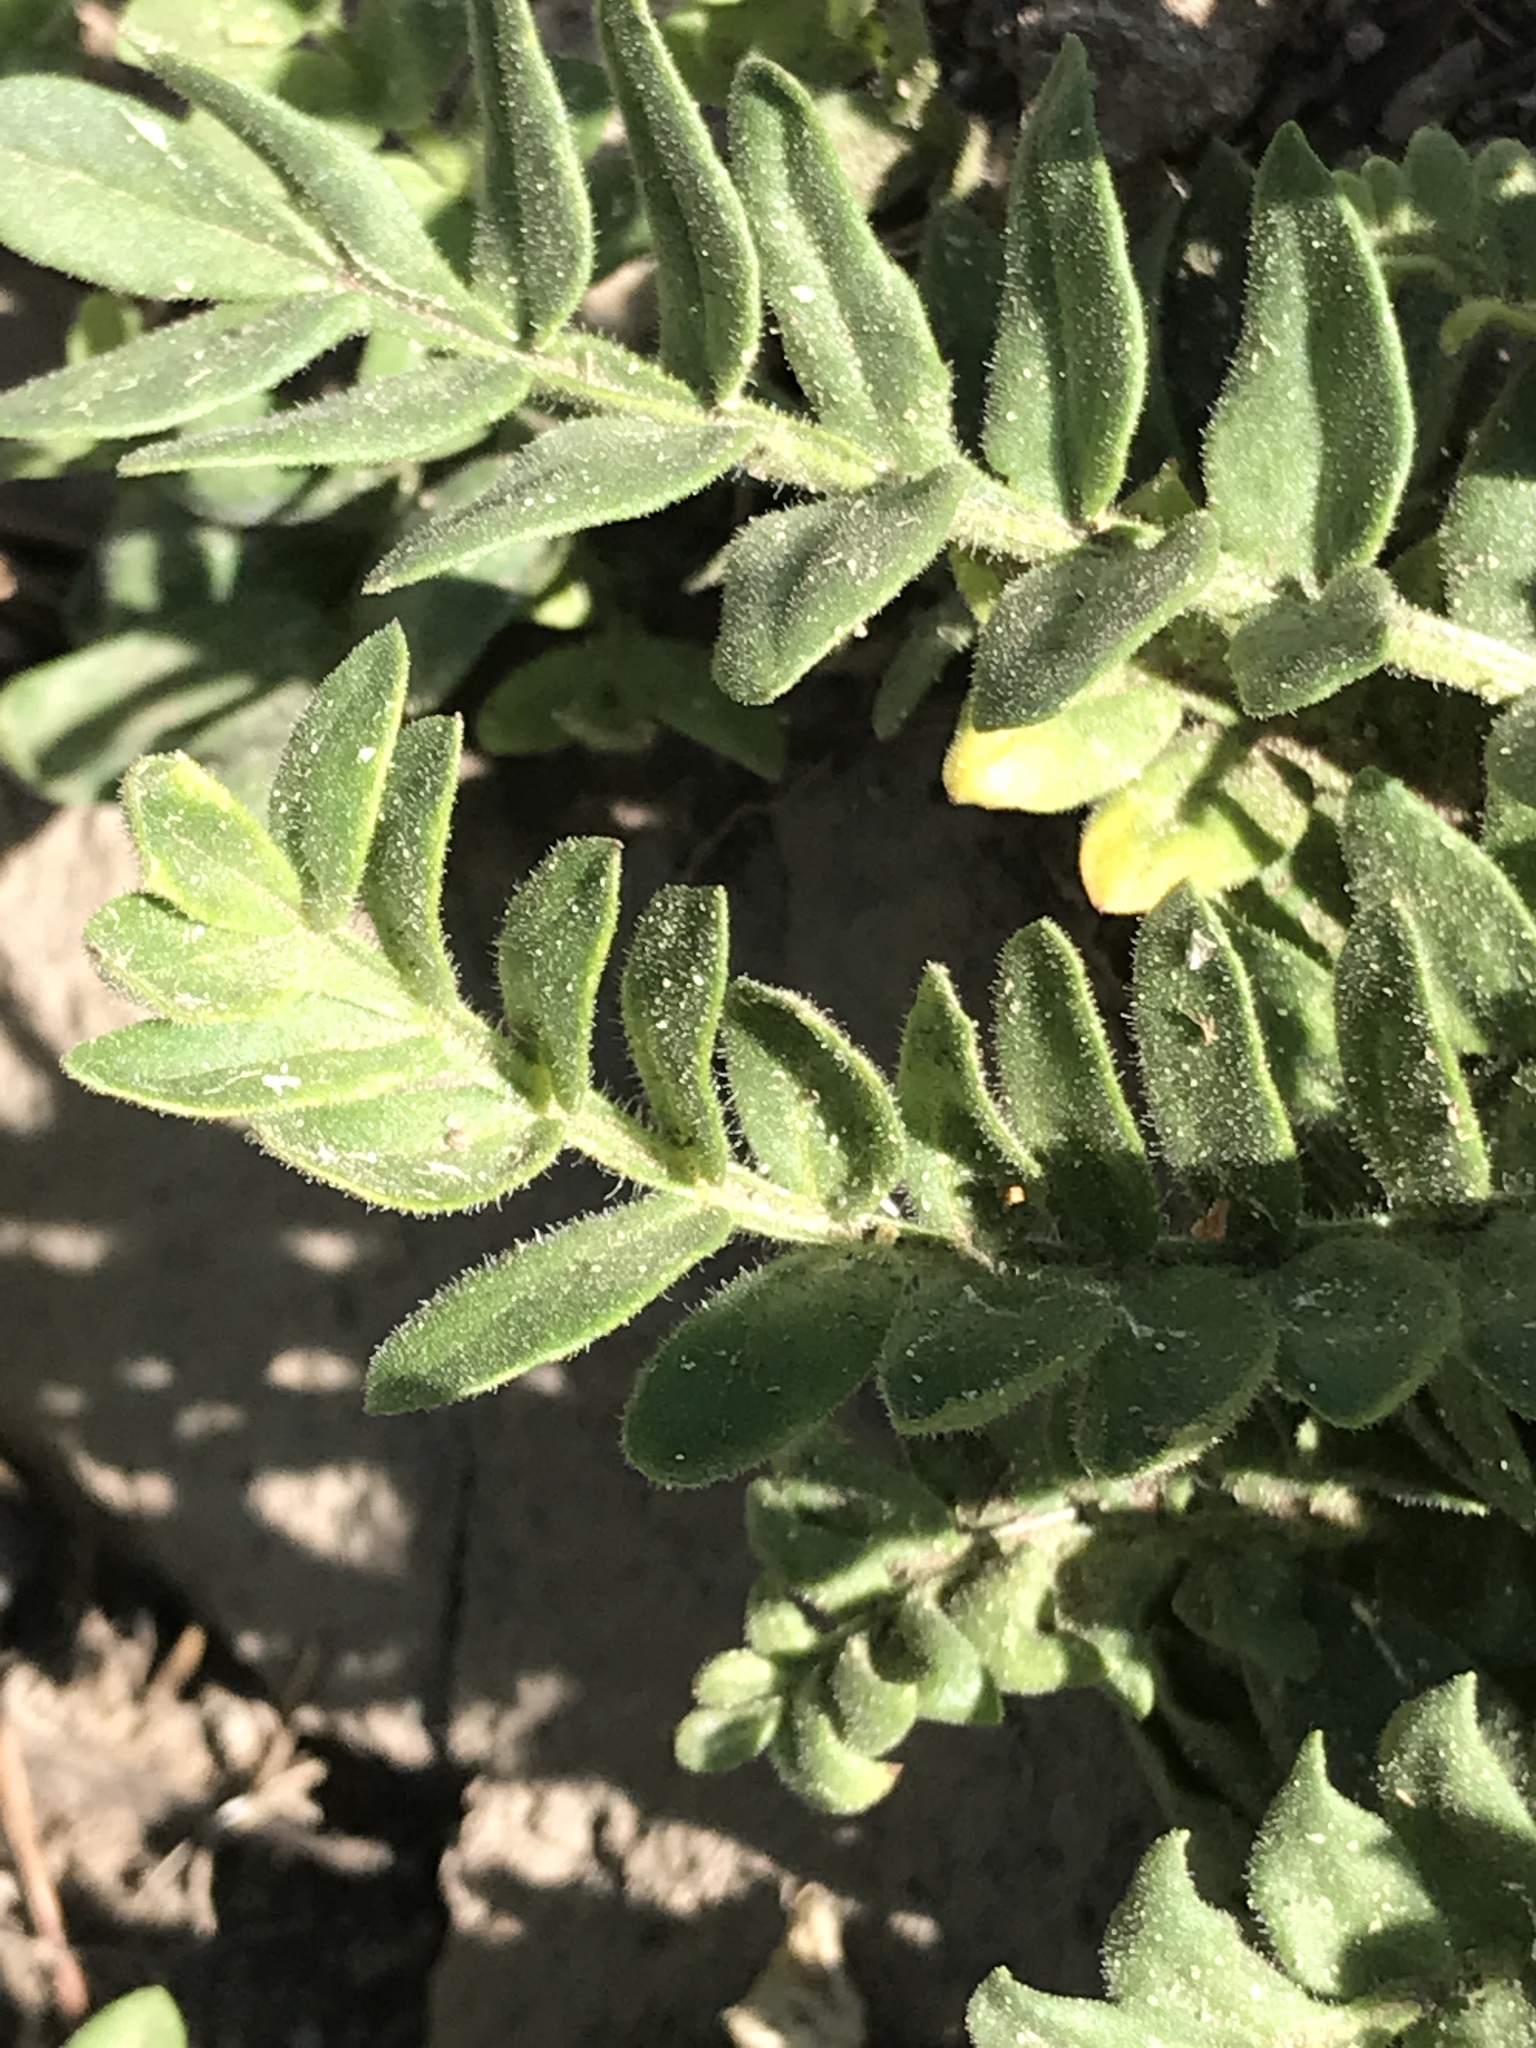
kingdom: Plantae
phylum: Tracheophyta
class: Magnoliopsida
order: Ericales
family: Polemoniaceae
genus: Polemonium
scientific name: Polemonium californicum
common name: California jacob's ladder
